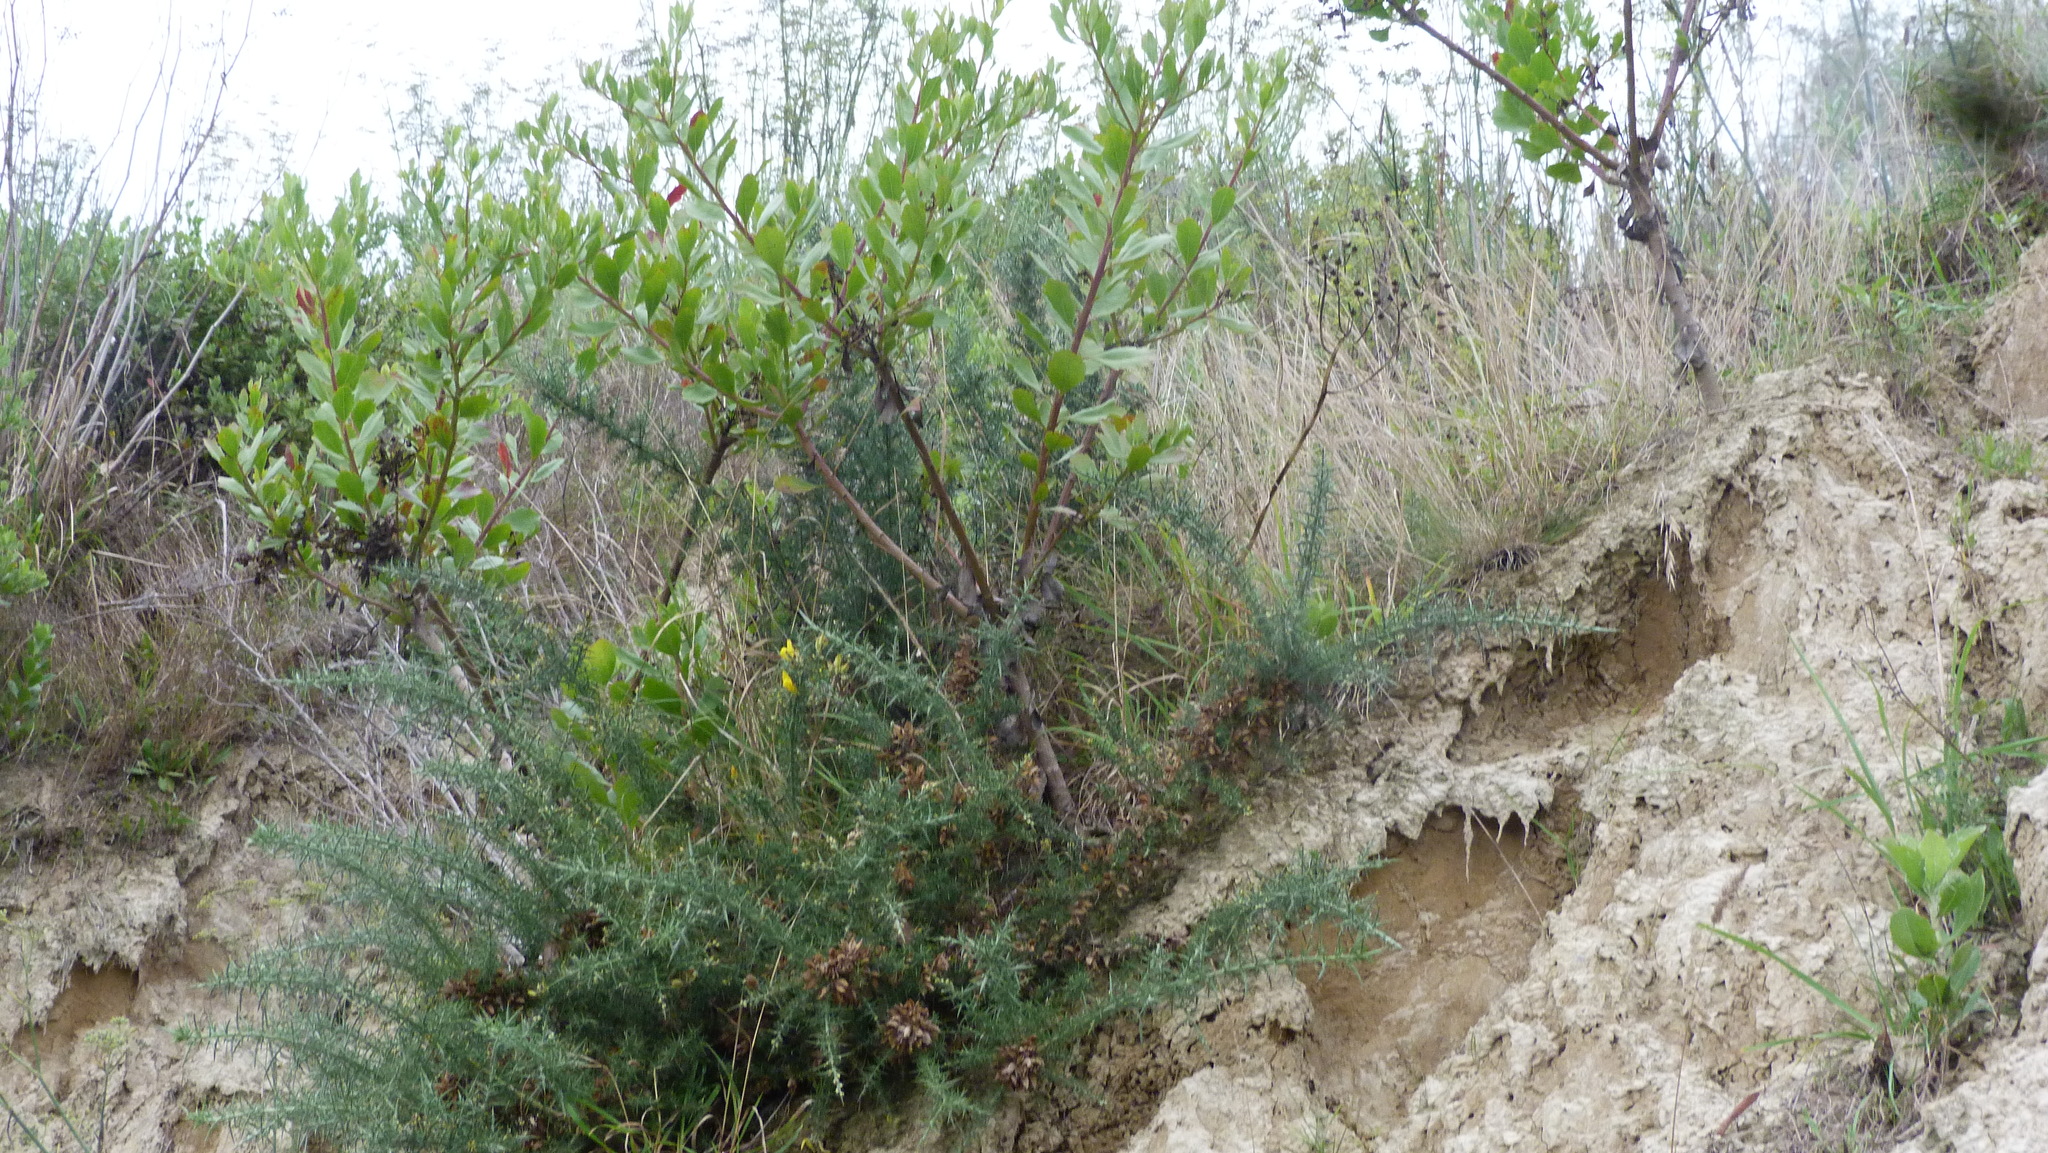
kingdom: Plantae
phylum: Tracheophyta
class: Magnoliopsida
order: Asterales
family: Asteraceae
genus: Osteospermum
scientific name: Osteospermum moniliferum
